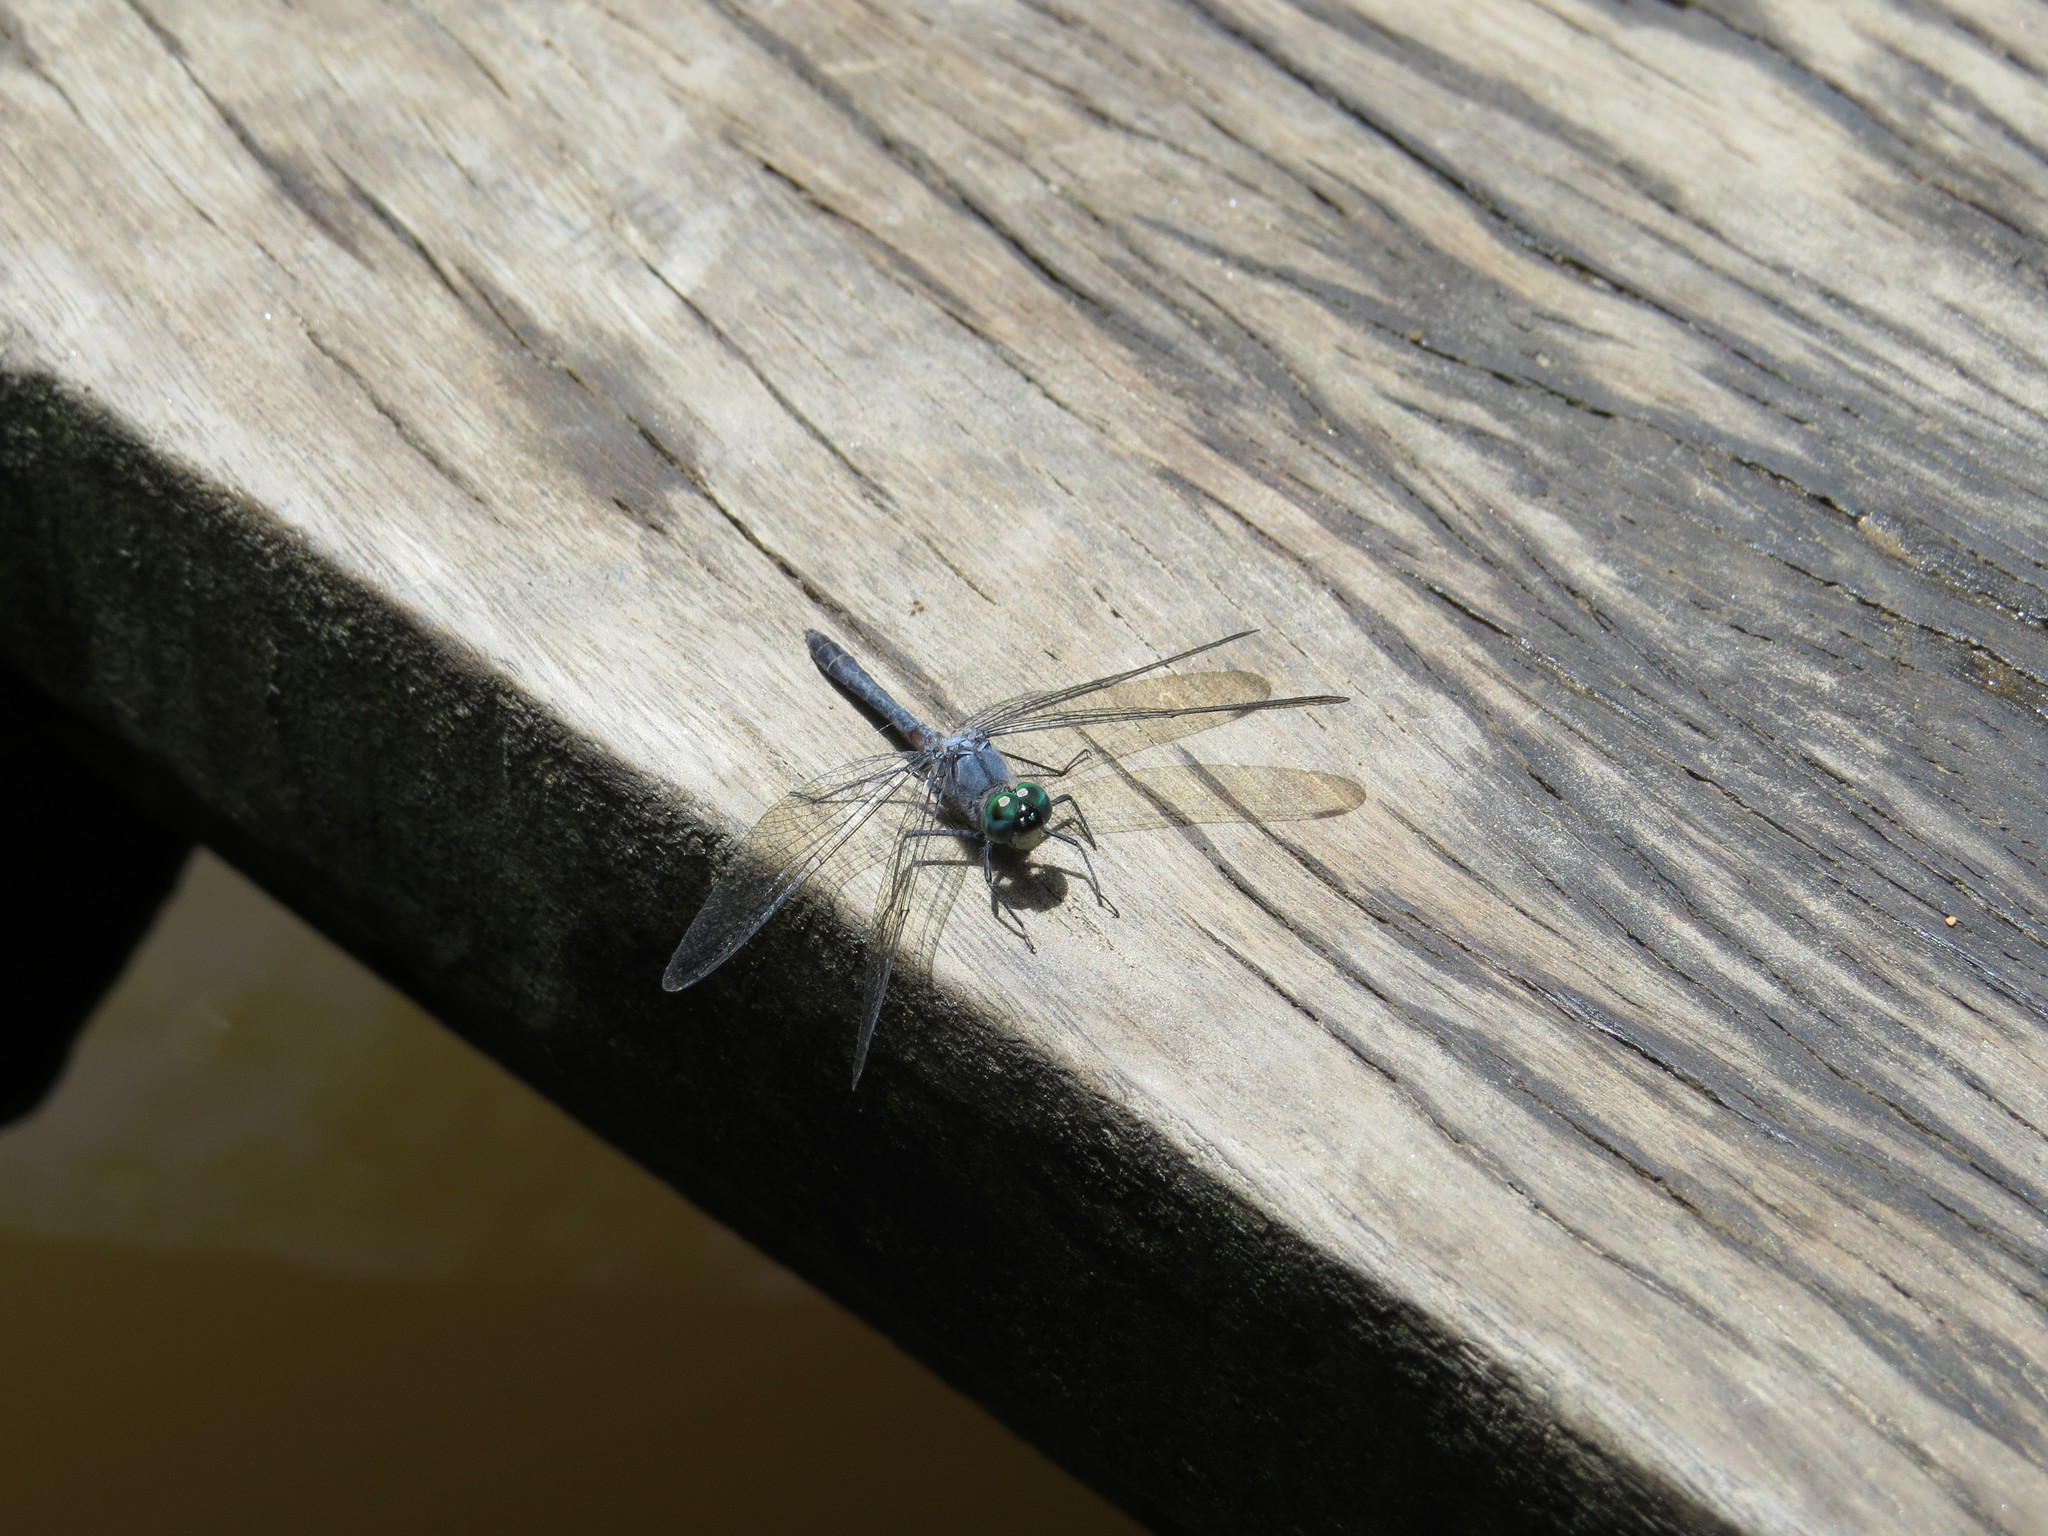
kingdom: Animalia
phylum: Arthropoda
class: Insecta
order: Odonata
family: Libellulidae
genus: Oligoclada
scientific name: Oligoclada laetitia
